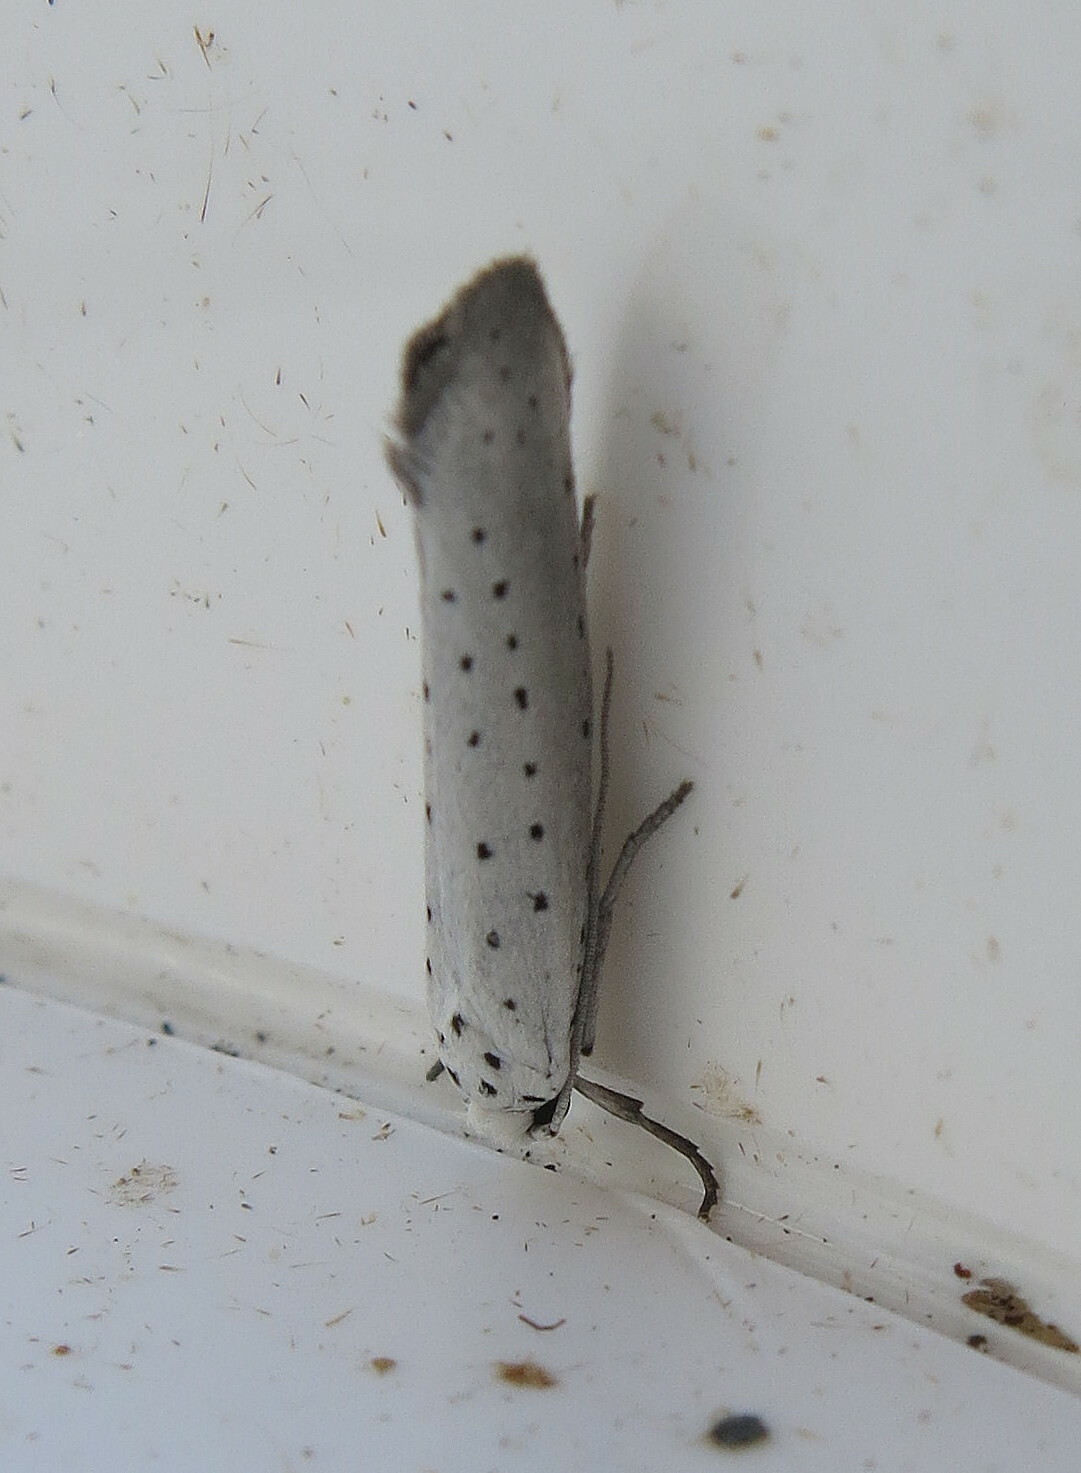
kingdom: Animalia
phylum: Arthropoda
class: Insecta
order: Lepidoptera
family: Yponomeutidae
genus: Yponomeuta
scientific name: Yponomeuta
